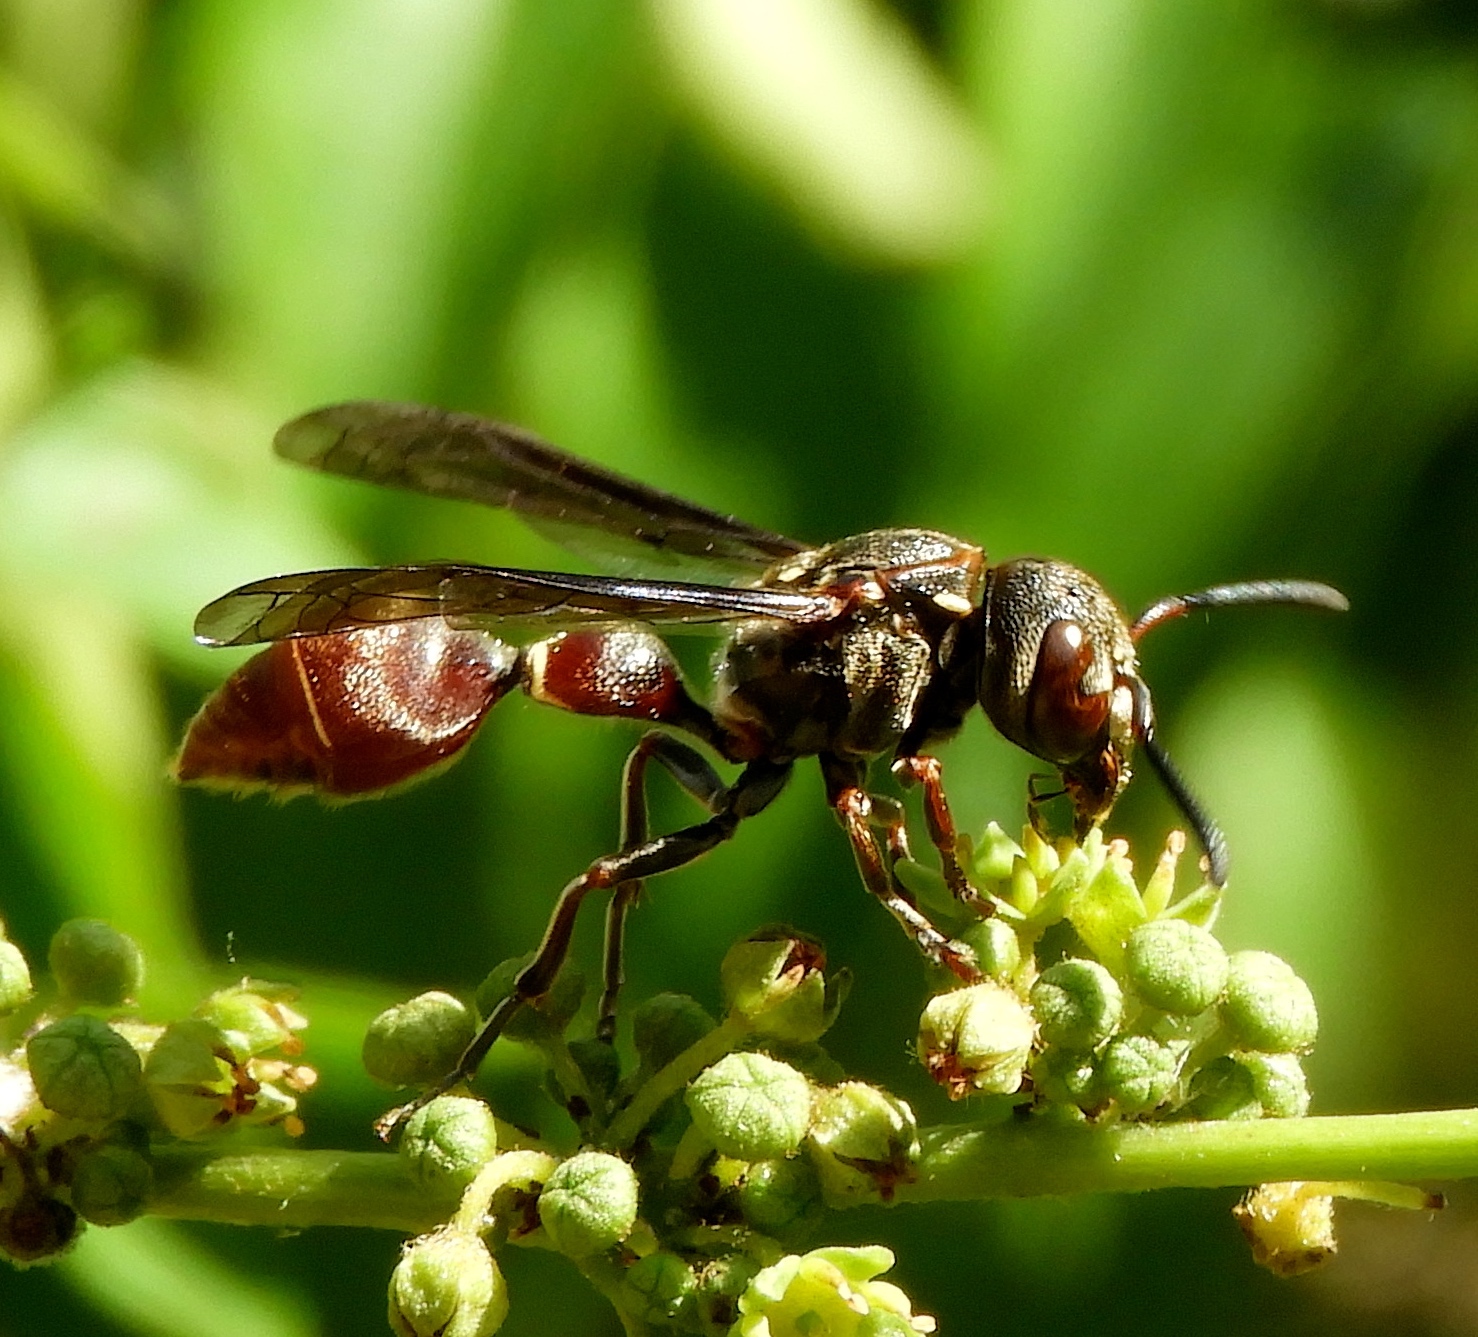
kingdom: Animalia
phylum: Arthropoda
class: Insecta
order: Hymenoptera
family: Eumenidae
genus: Zethus
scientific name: Zethus analis
